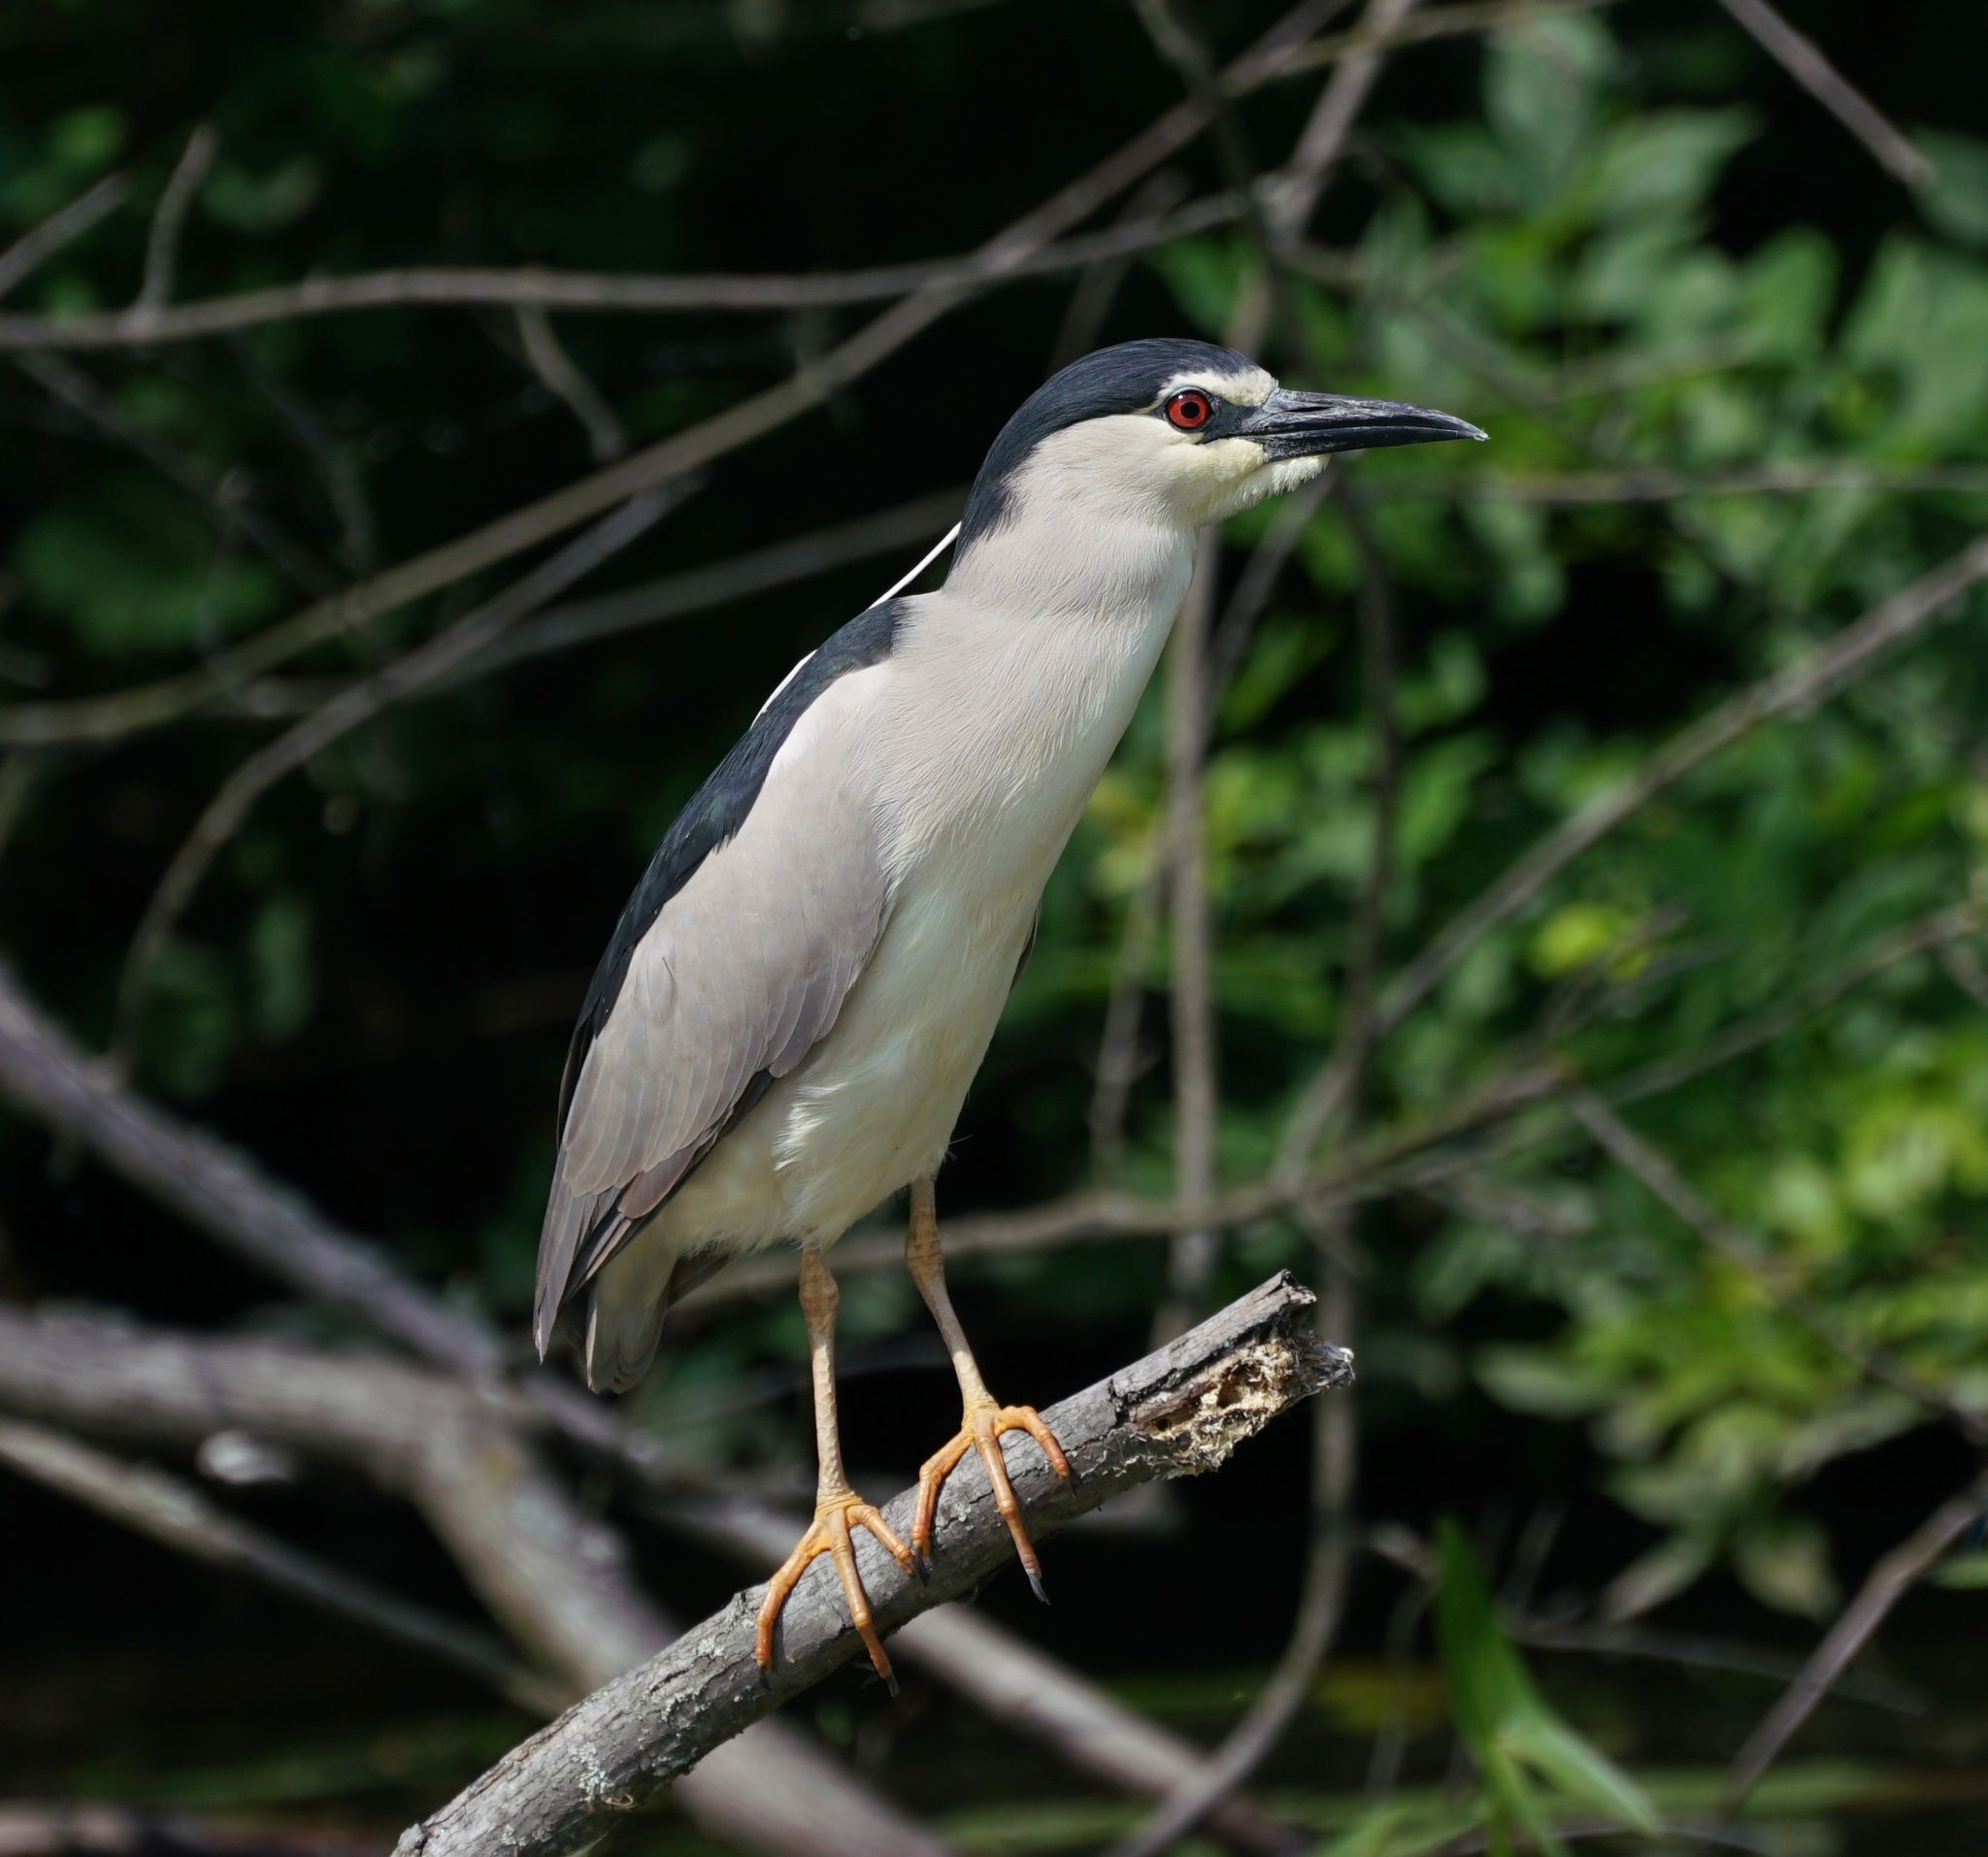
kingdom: Animalia
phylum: Chordata
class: Aves
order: Pelecaniformes
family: Ardeidae
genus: Nycticorax
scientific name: Nycticorax nycticorax
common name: Black-crowned night heron
